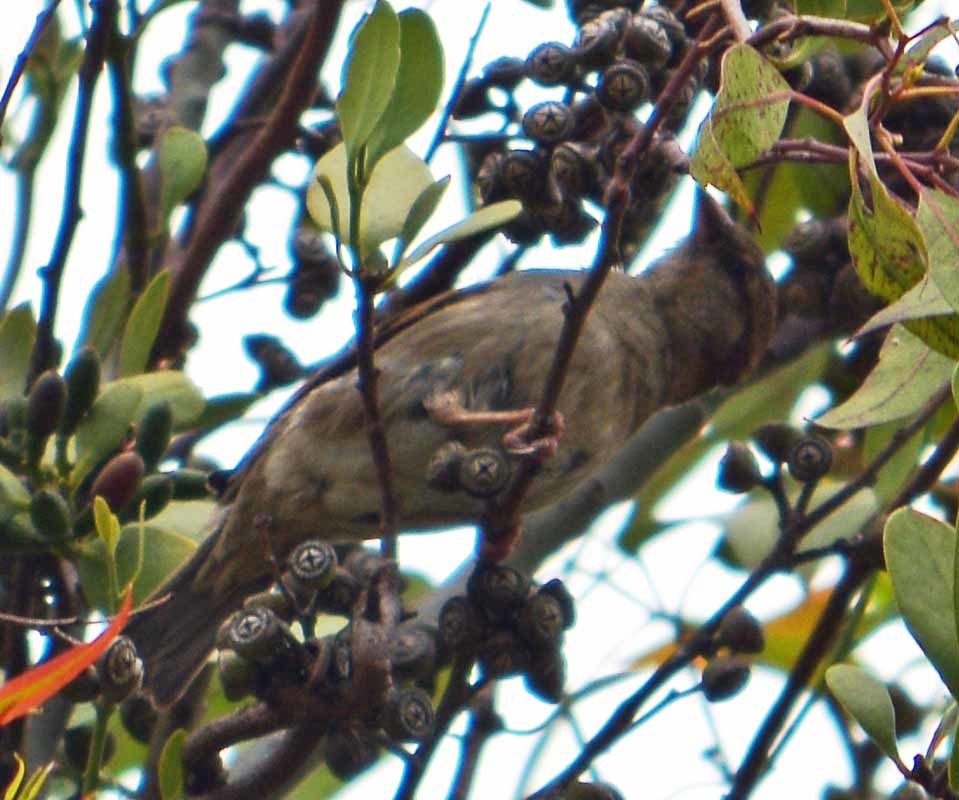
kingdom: Animalia
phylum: Chordata
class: Aves
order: Passeriformes
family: Passeridae
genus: Passer
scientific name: Passer domesticus
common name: House sparrow
